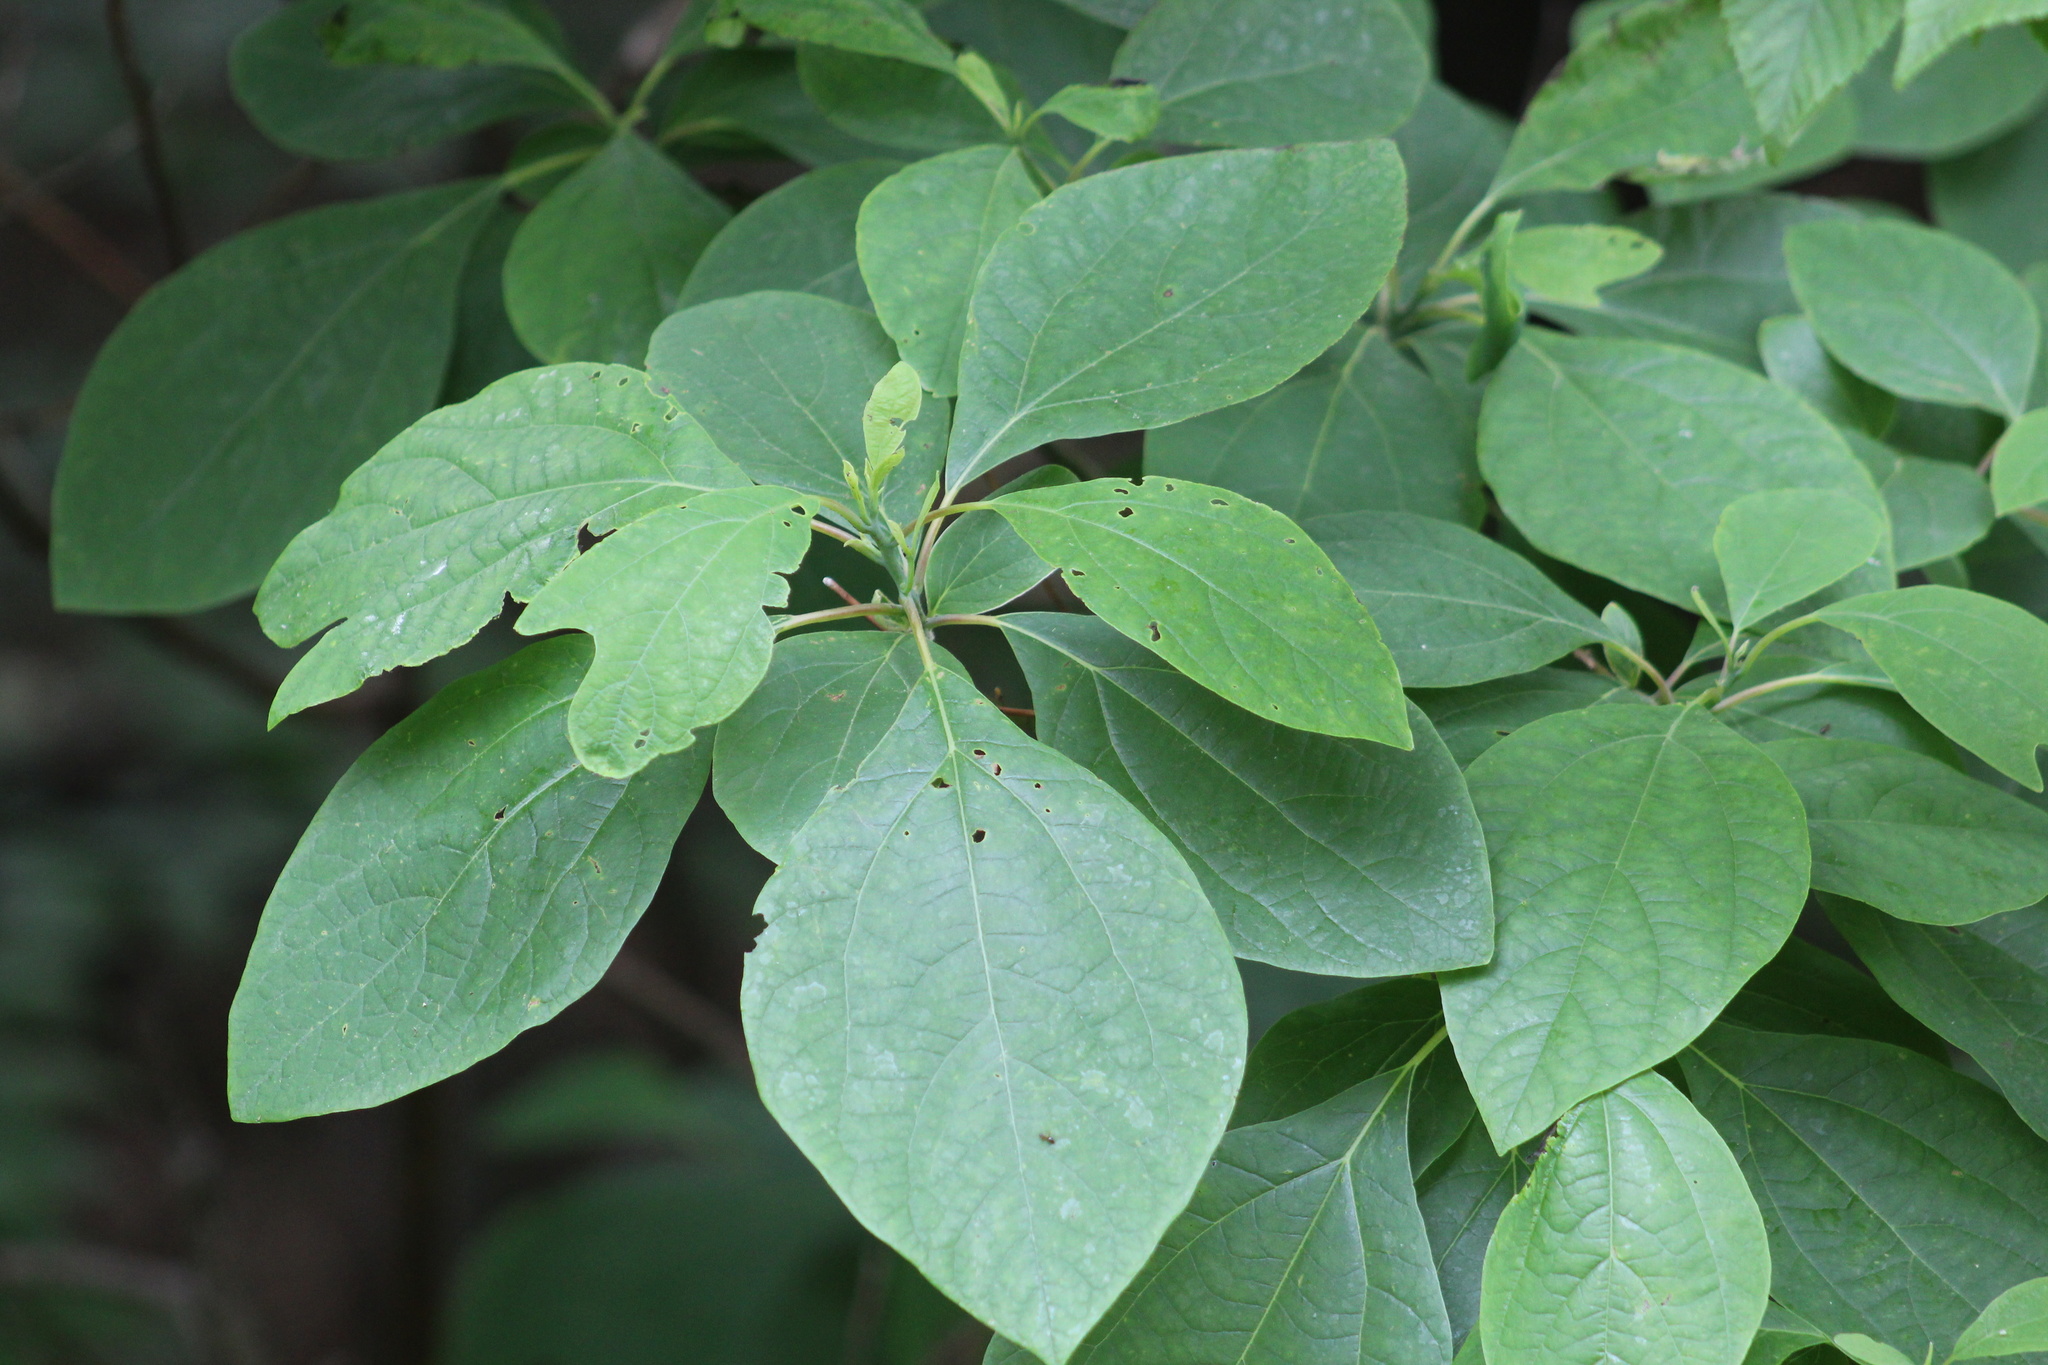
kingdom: Plantae
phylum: Tracheophyta
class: Magnoliopsida
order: Laurales
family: Lauraceae
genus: Sassafras
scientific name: Sassafras albidum
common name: Sassafras
